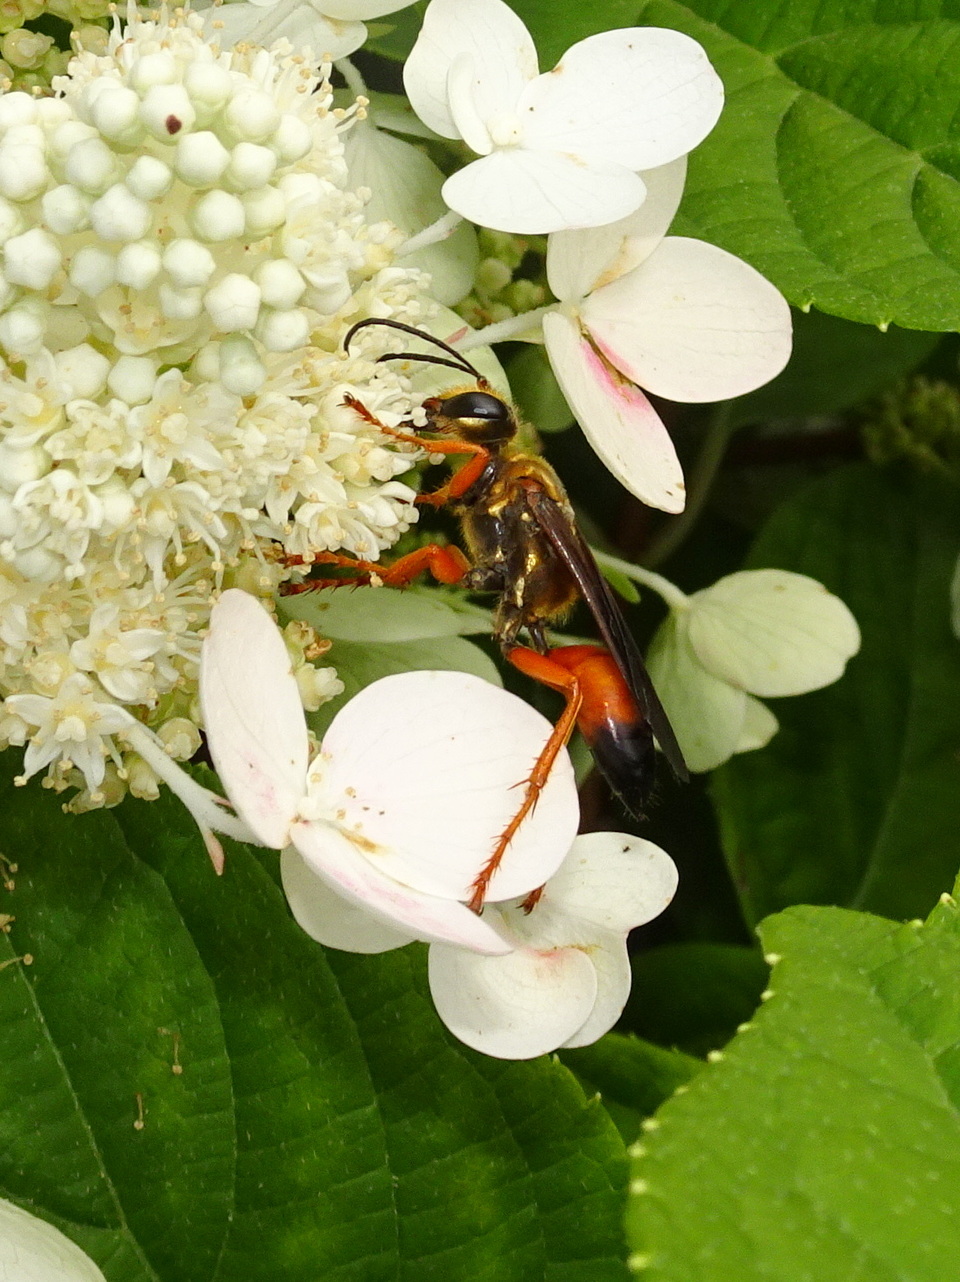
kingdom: Animalia
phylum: Arthropoda
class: Insecta
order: Hymenoptera
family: Sphecidae
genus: Sphex
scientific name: Sphex ichneumoneus
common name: Great golden digger wasp
